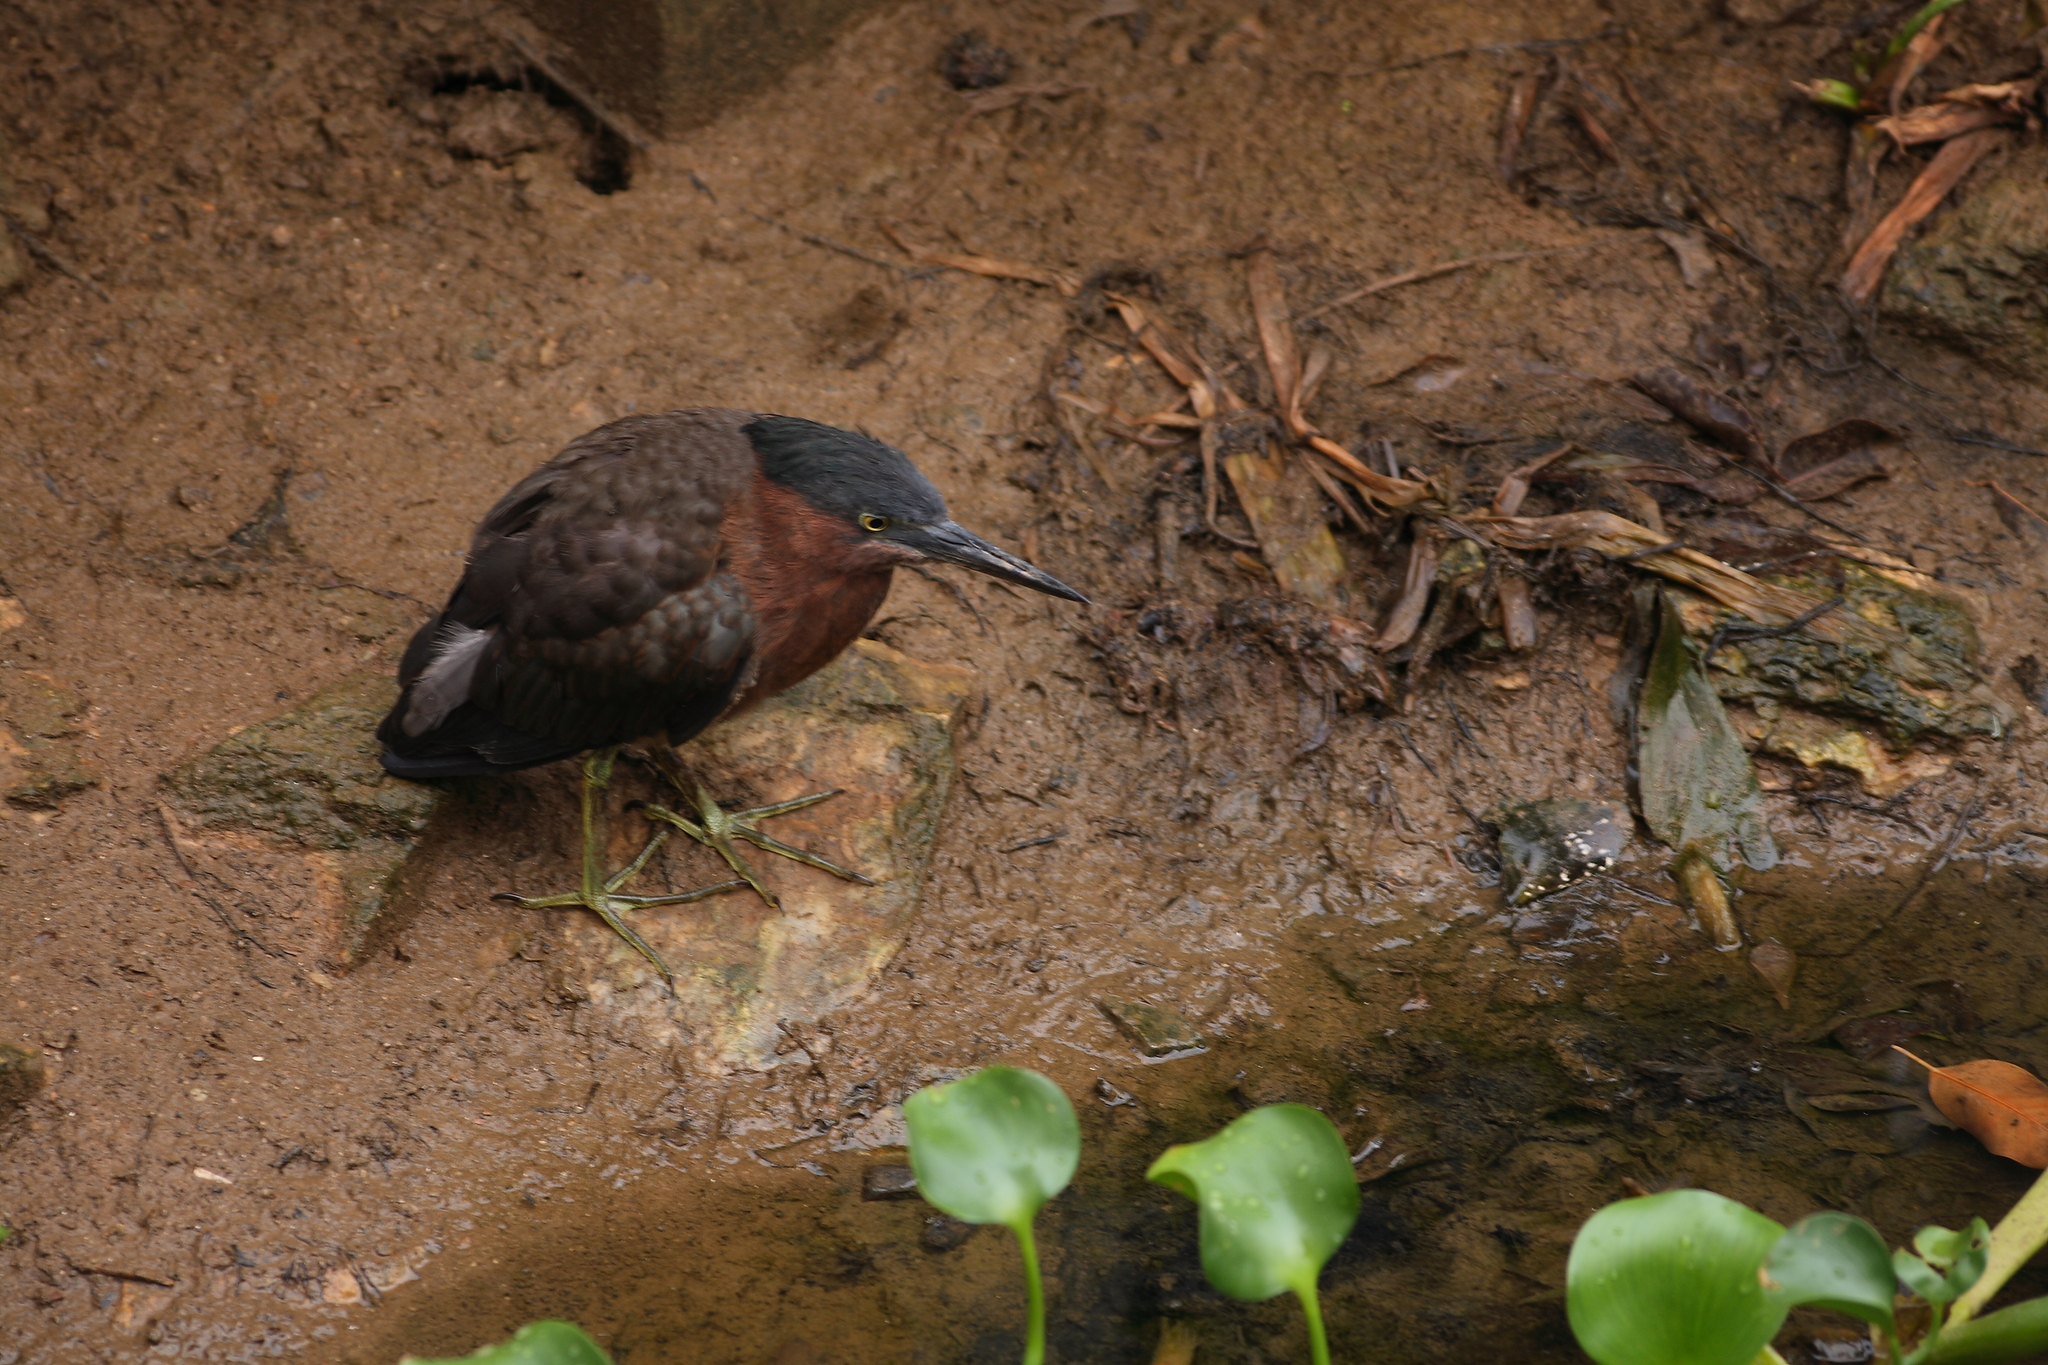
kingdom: Animalia
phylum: Chordata
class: Aves
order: Pelecaniformes
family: Ardeidae
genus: Butorides
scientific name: Butorides virescens
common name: Green heron
